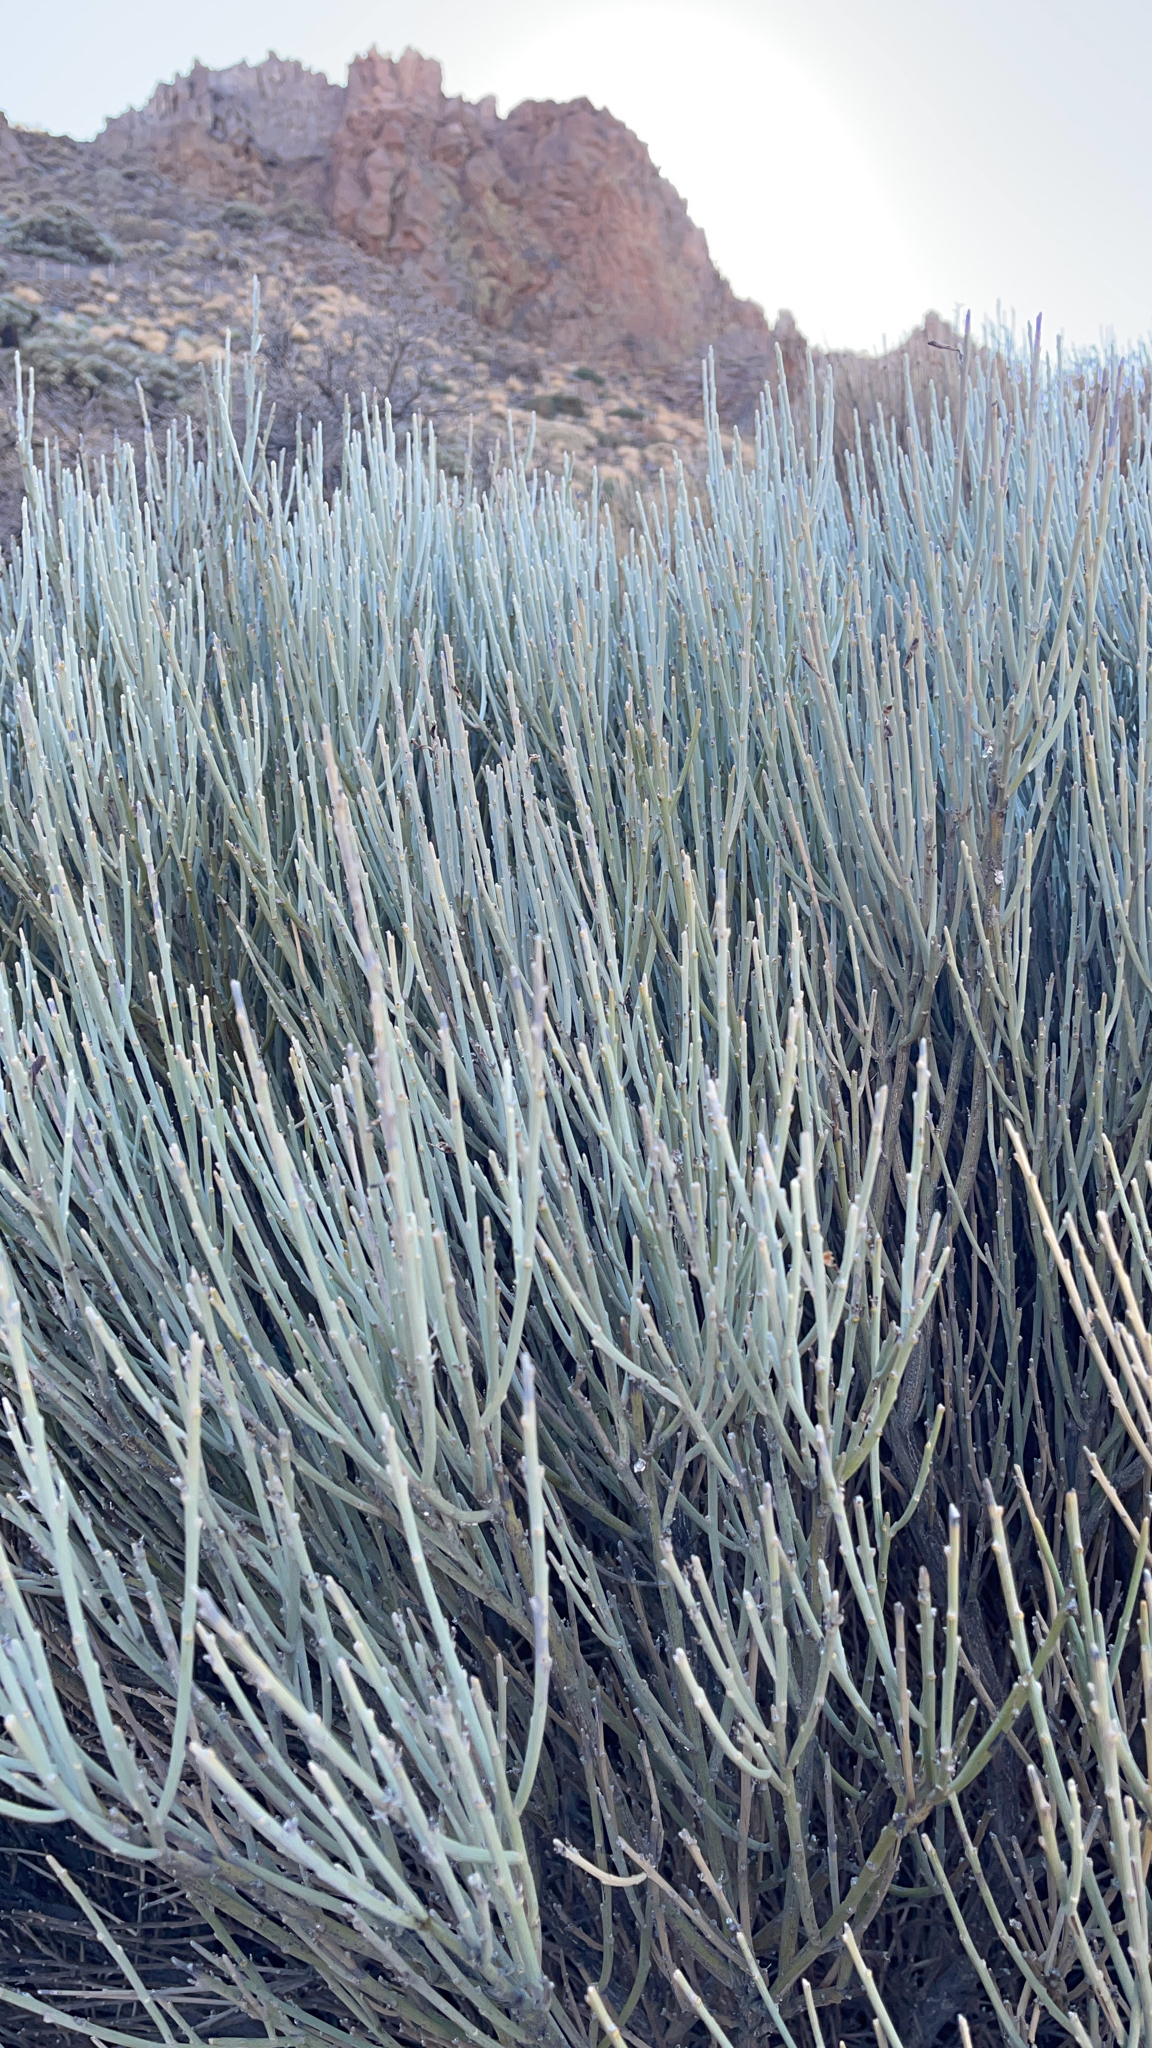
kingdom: Plantae
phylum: Tracheophyta
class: Magnoliopsida
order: Fabales
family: Fabaceae
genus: Cytisus
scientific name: Cytisus supranubius
